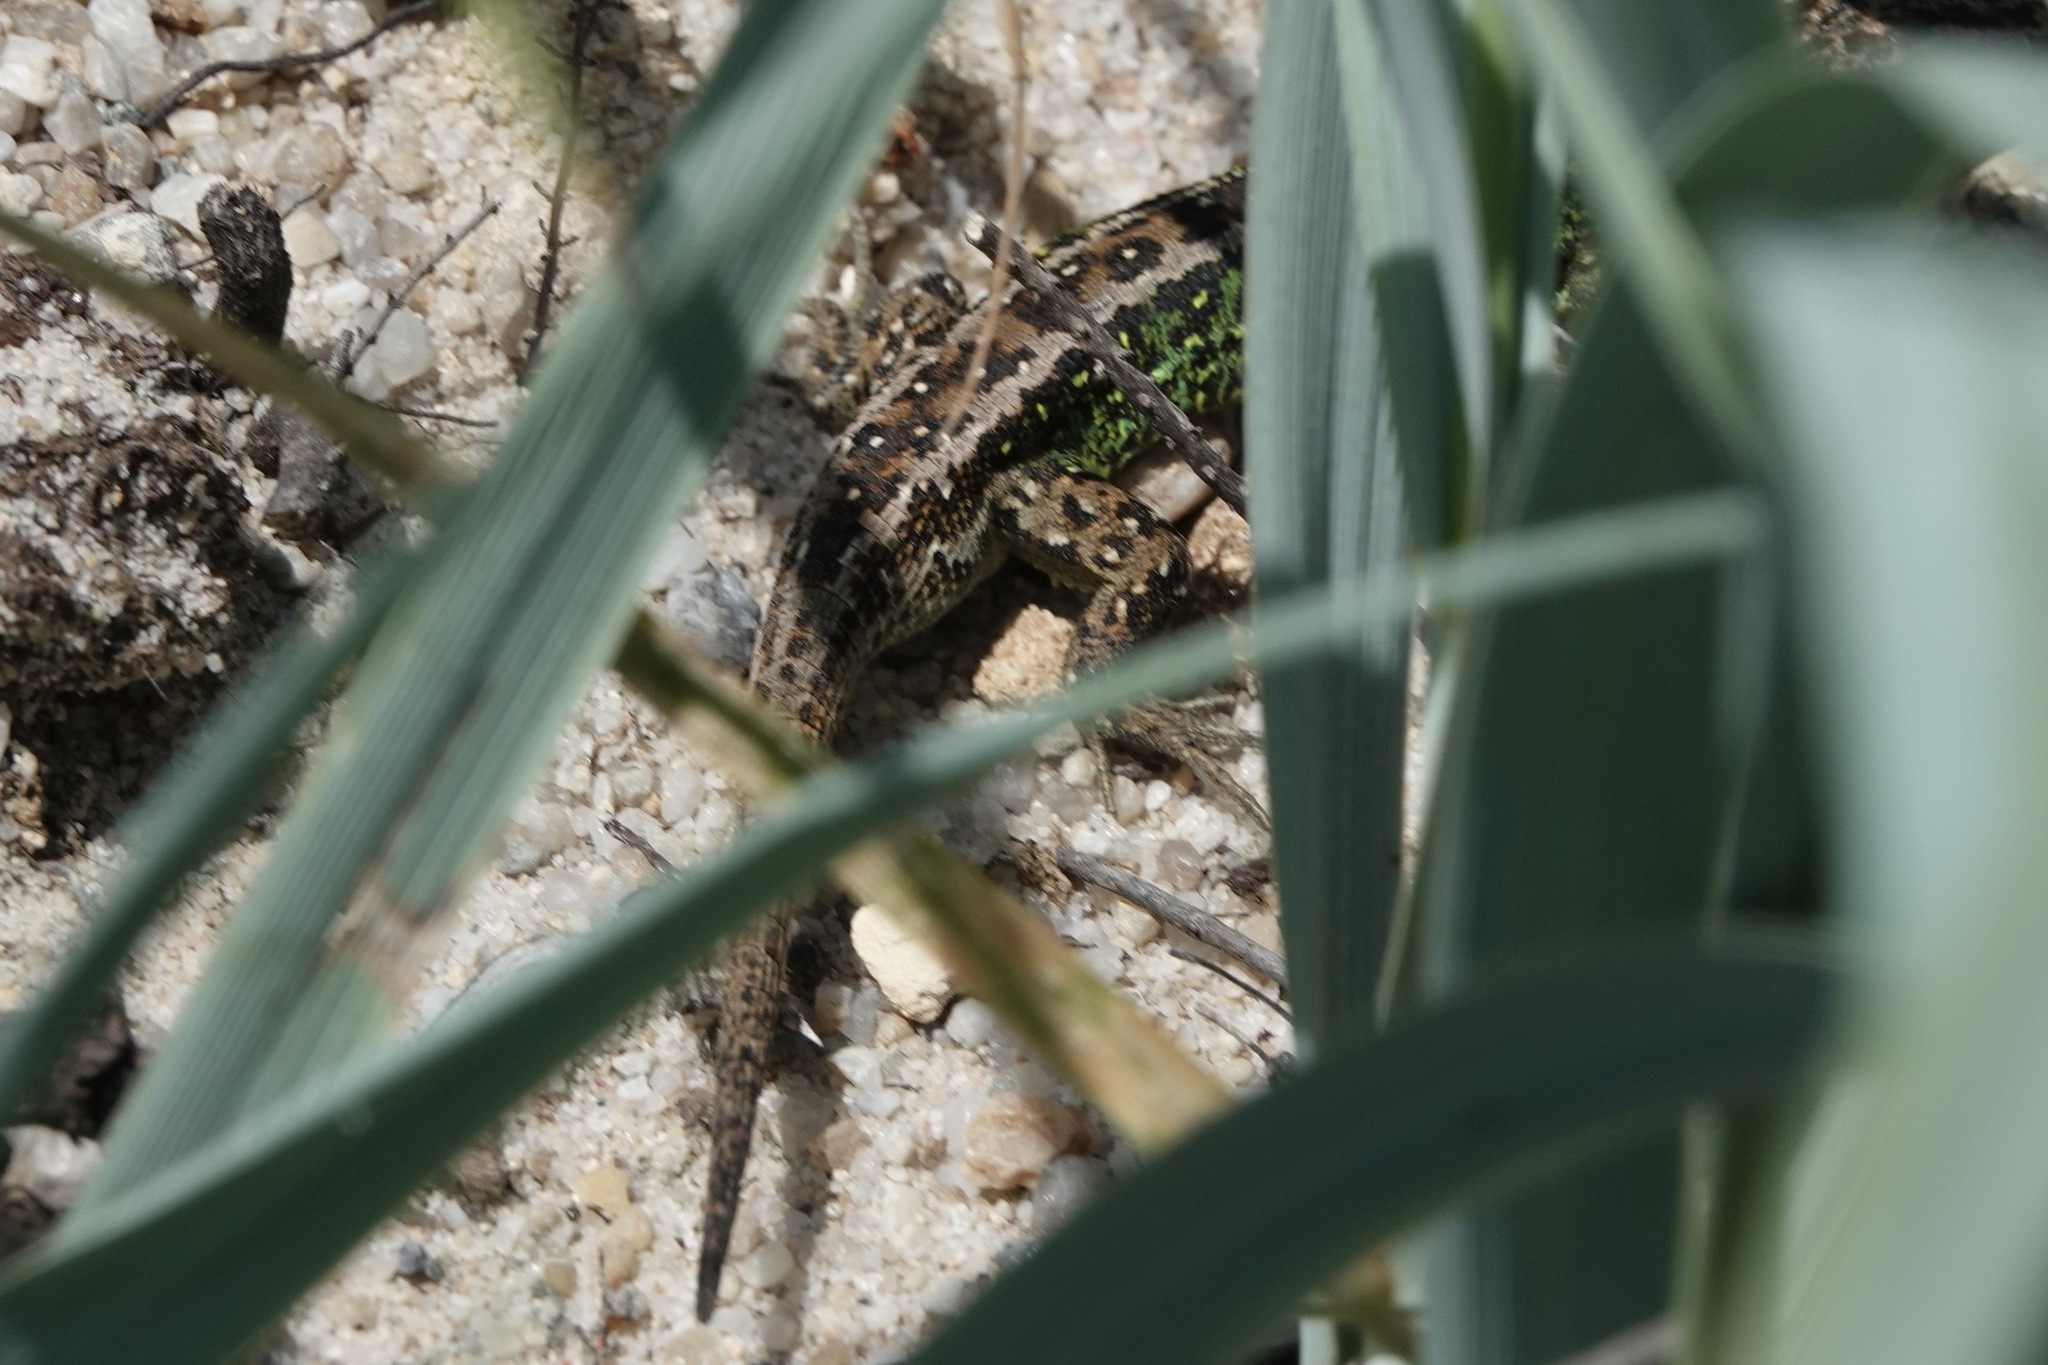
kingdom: Animalia
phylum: Chordata
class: Squamata
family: Lacertidae
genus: Lacerta
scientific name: Lacerta agilis
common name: Sand lizard
